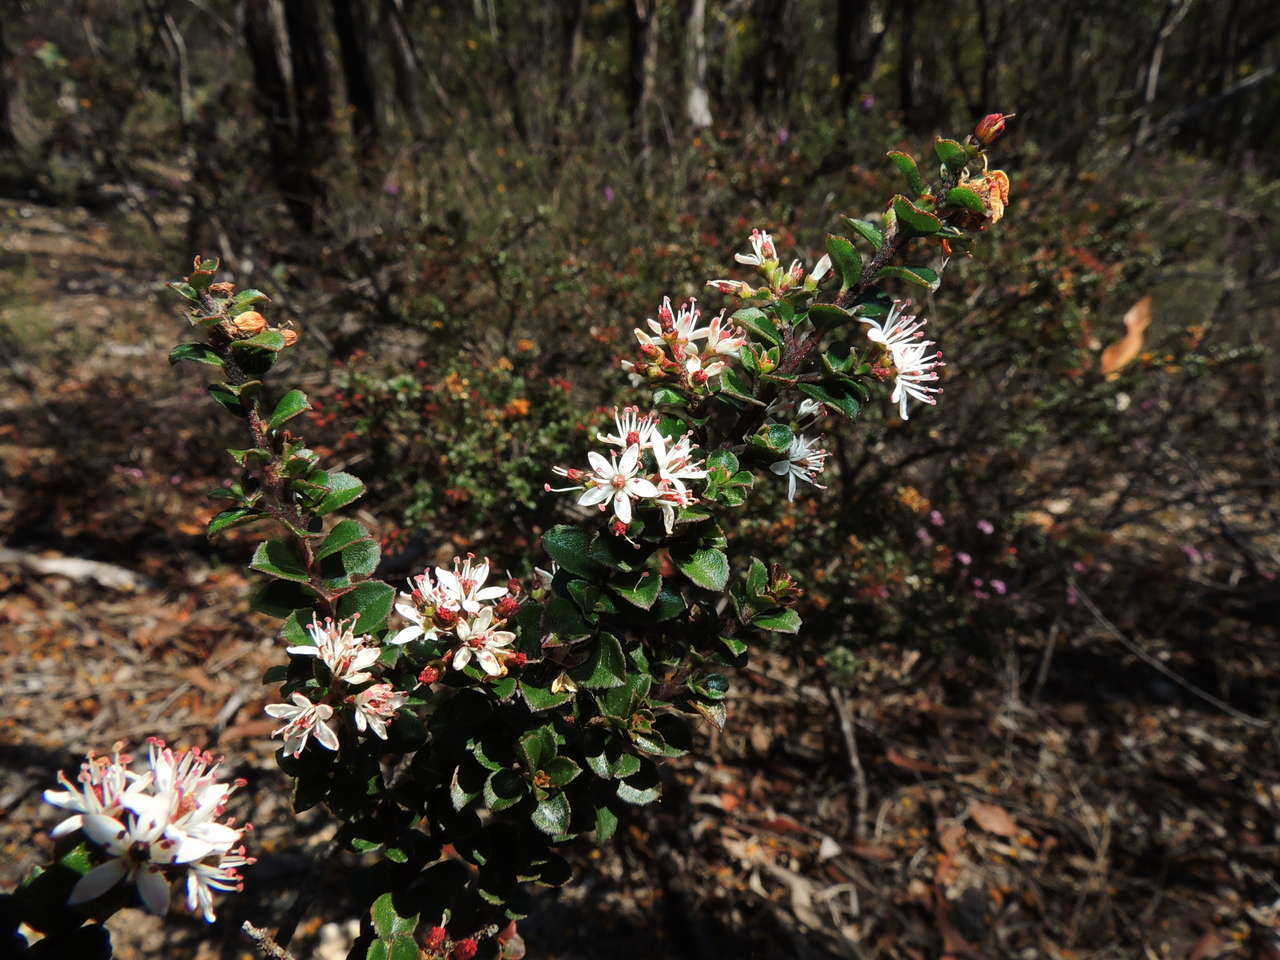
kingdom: Plantae
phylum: Tracheophyta
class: Magnoliopsida
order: Sapindales
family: Rutaceae
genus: Leionema
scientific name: Leionema lamprophyllum
